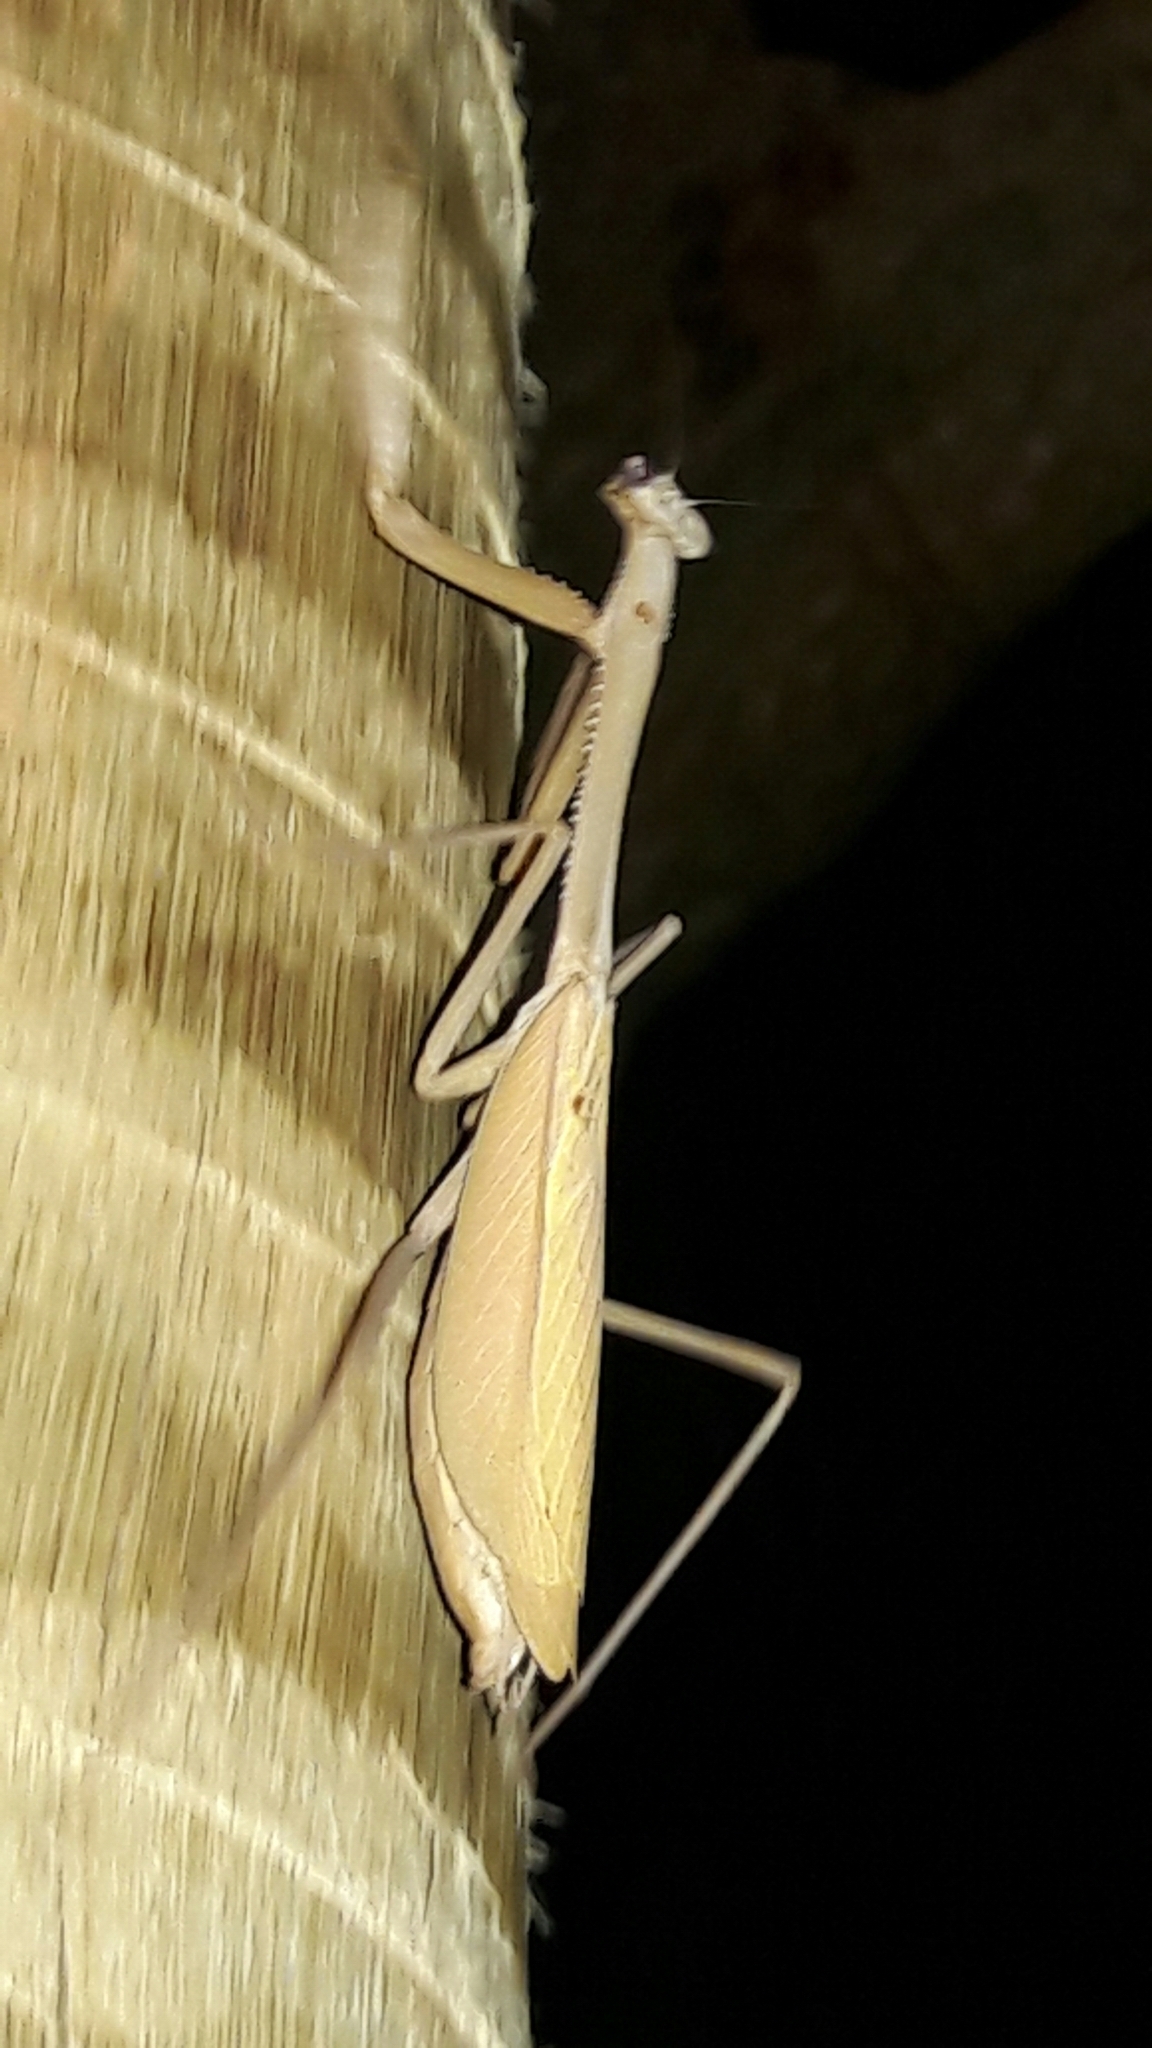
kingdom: Animalia
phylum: Arthropoda
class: Insecta
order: Mantodea
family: Mantidae
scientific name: Mantidae
